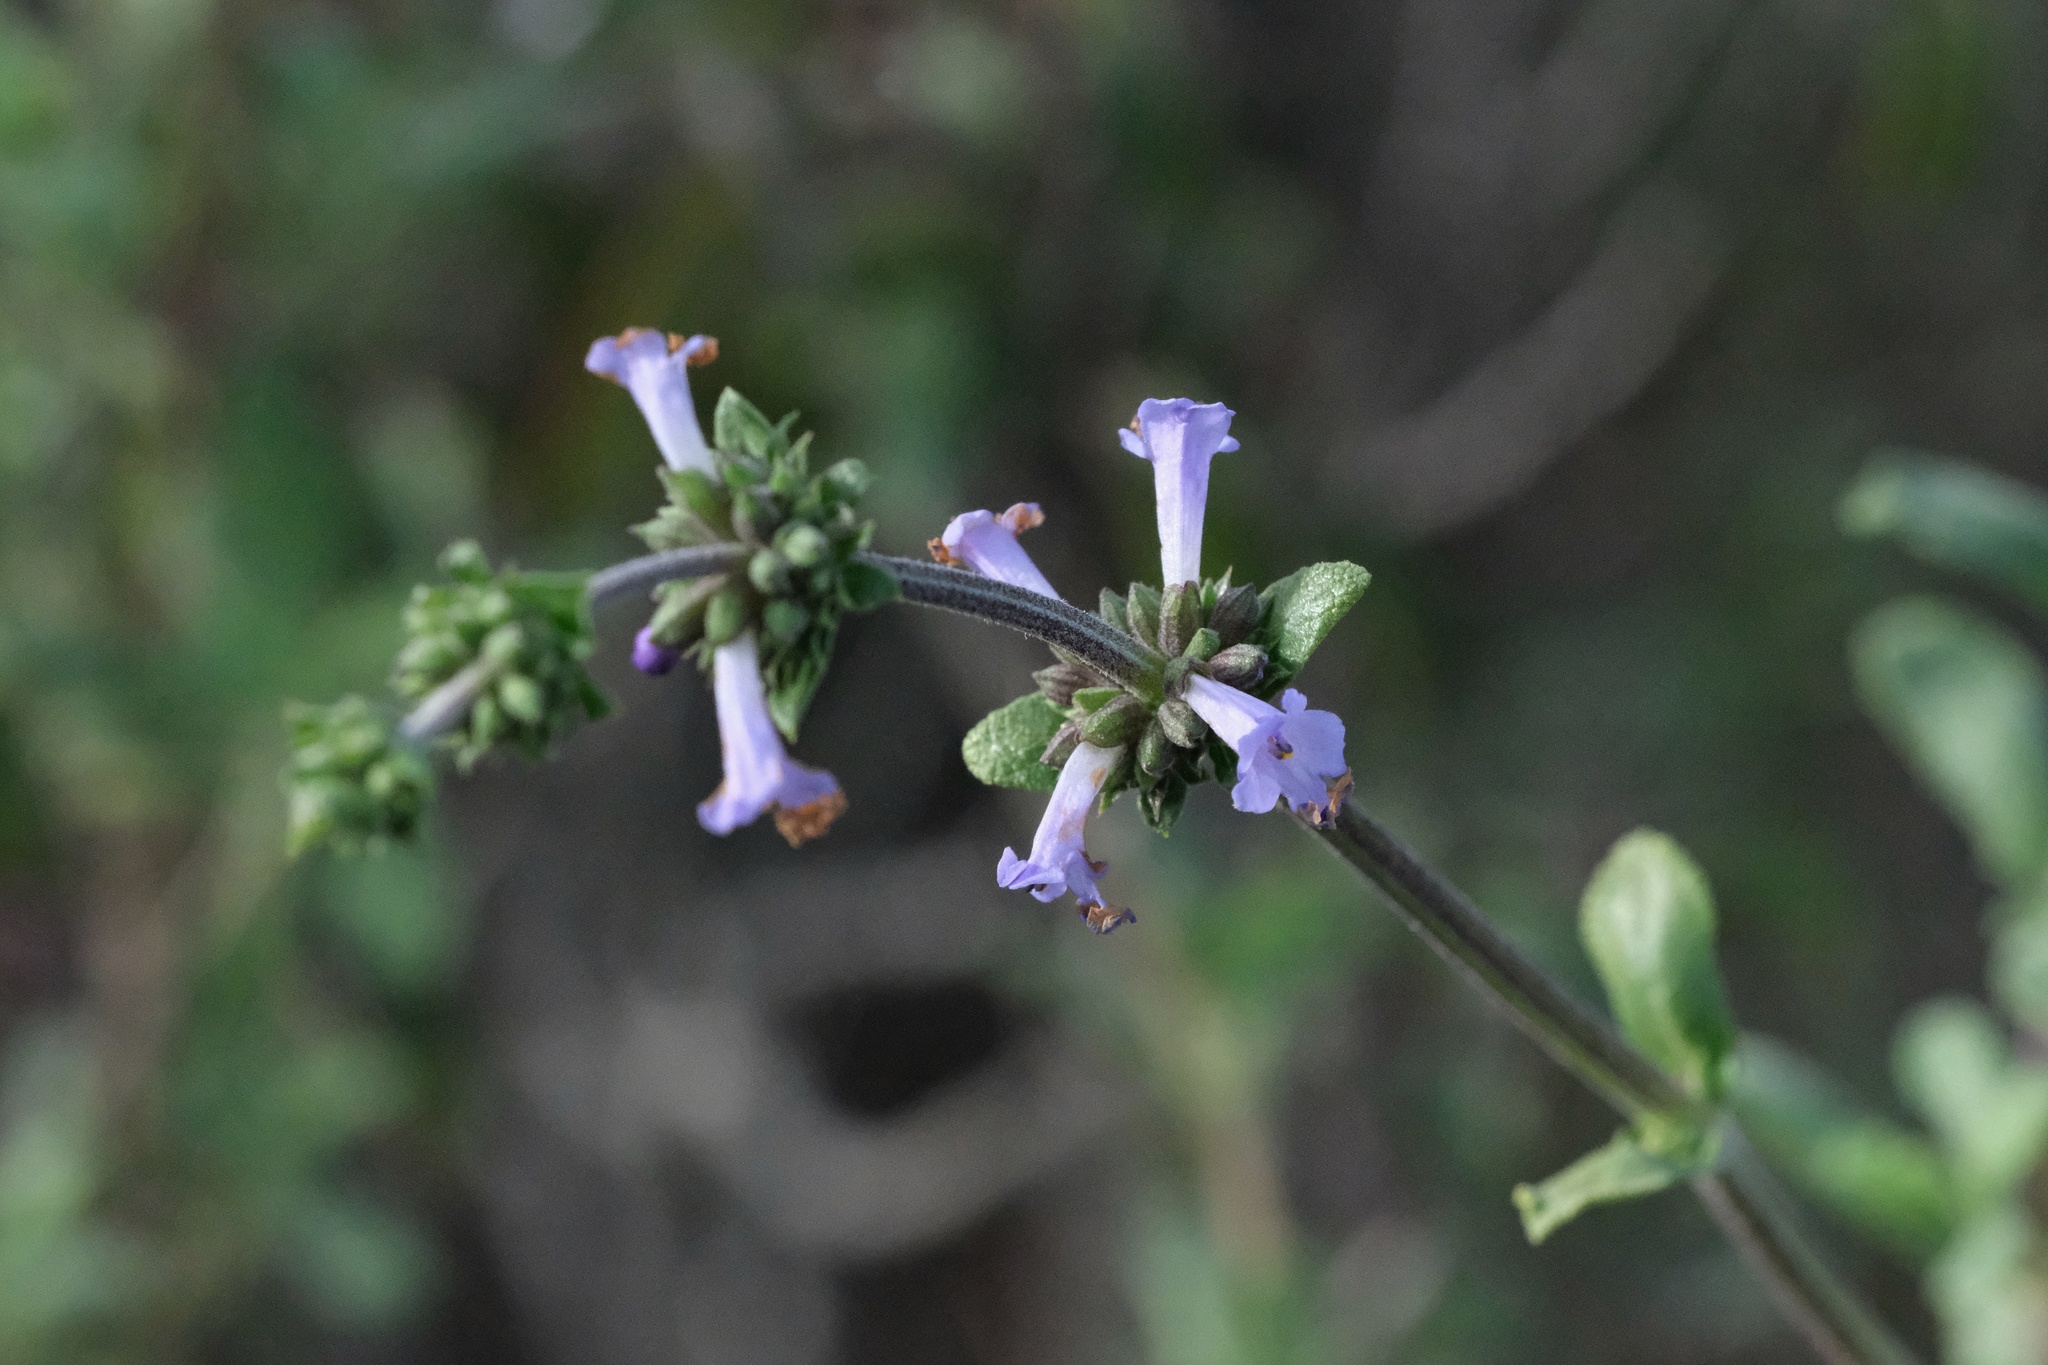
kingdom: Plantae
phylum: Tracheophyta
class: Magnoliopsida
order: Lamiales
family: Lamiaceae
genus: Salvia
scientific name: Salvia munzii
